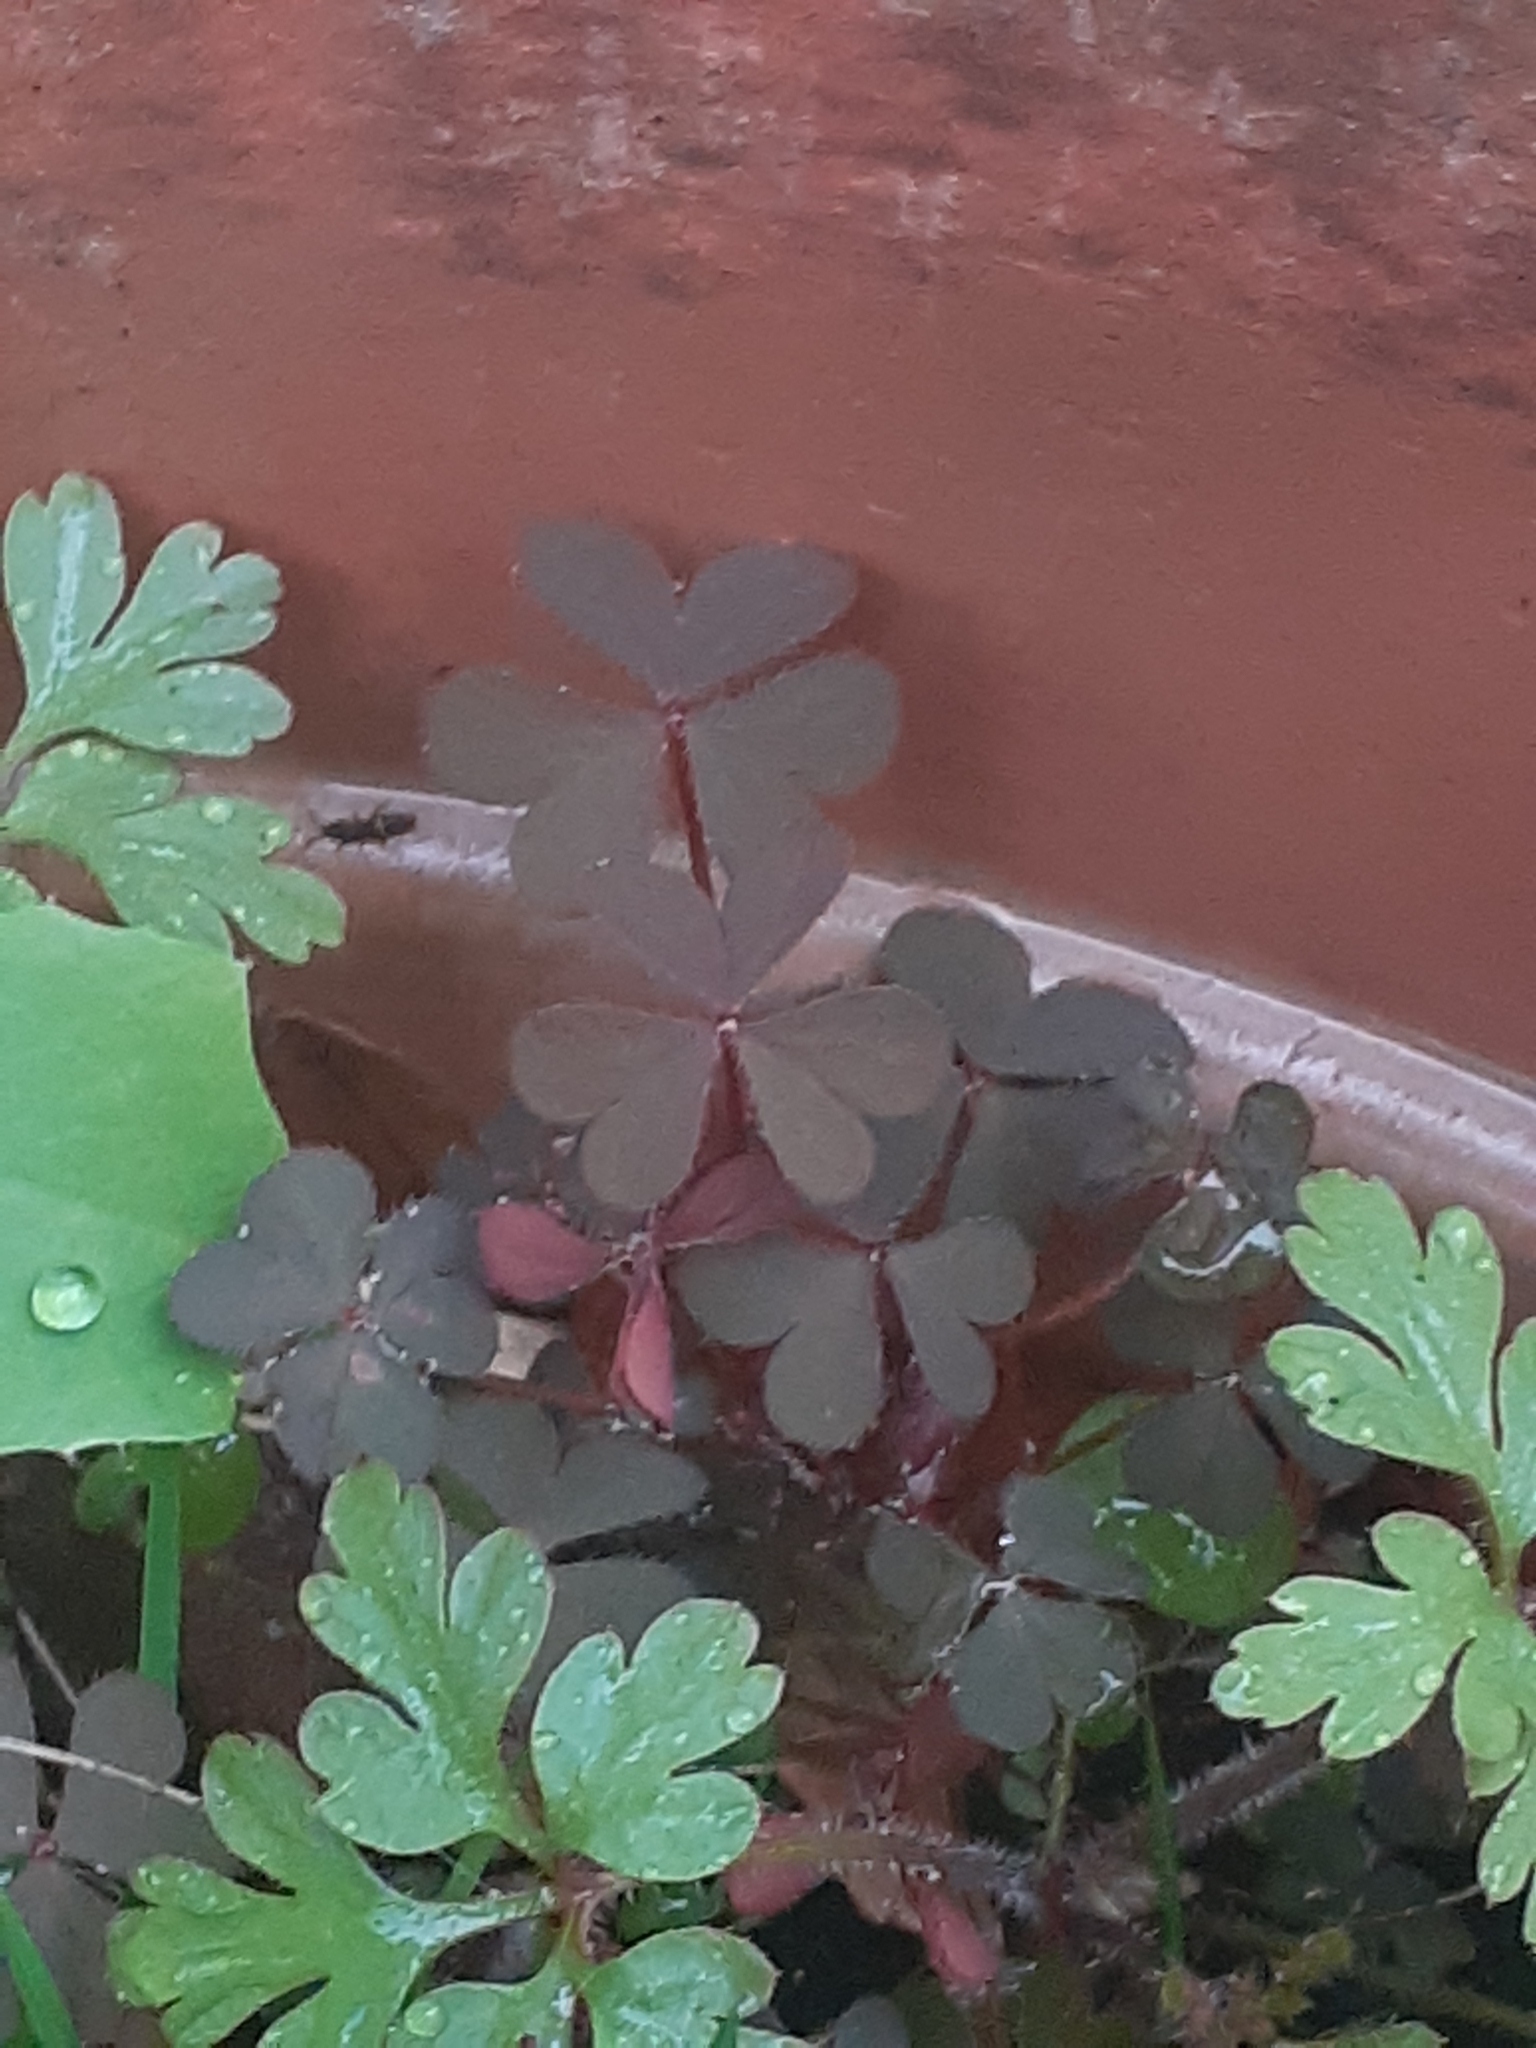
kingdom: Plantae
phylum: Tracheophyta
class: Magnoliopsida
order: Oxalidales
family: Oxalidaceae
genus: Oxalis
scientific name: Oxalis corniculata
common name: Procumbent yellow-sorrel
